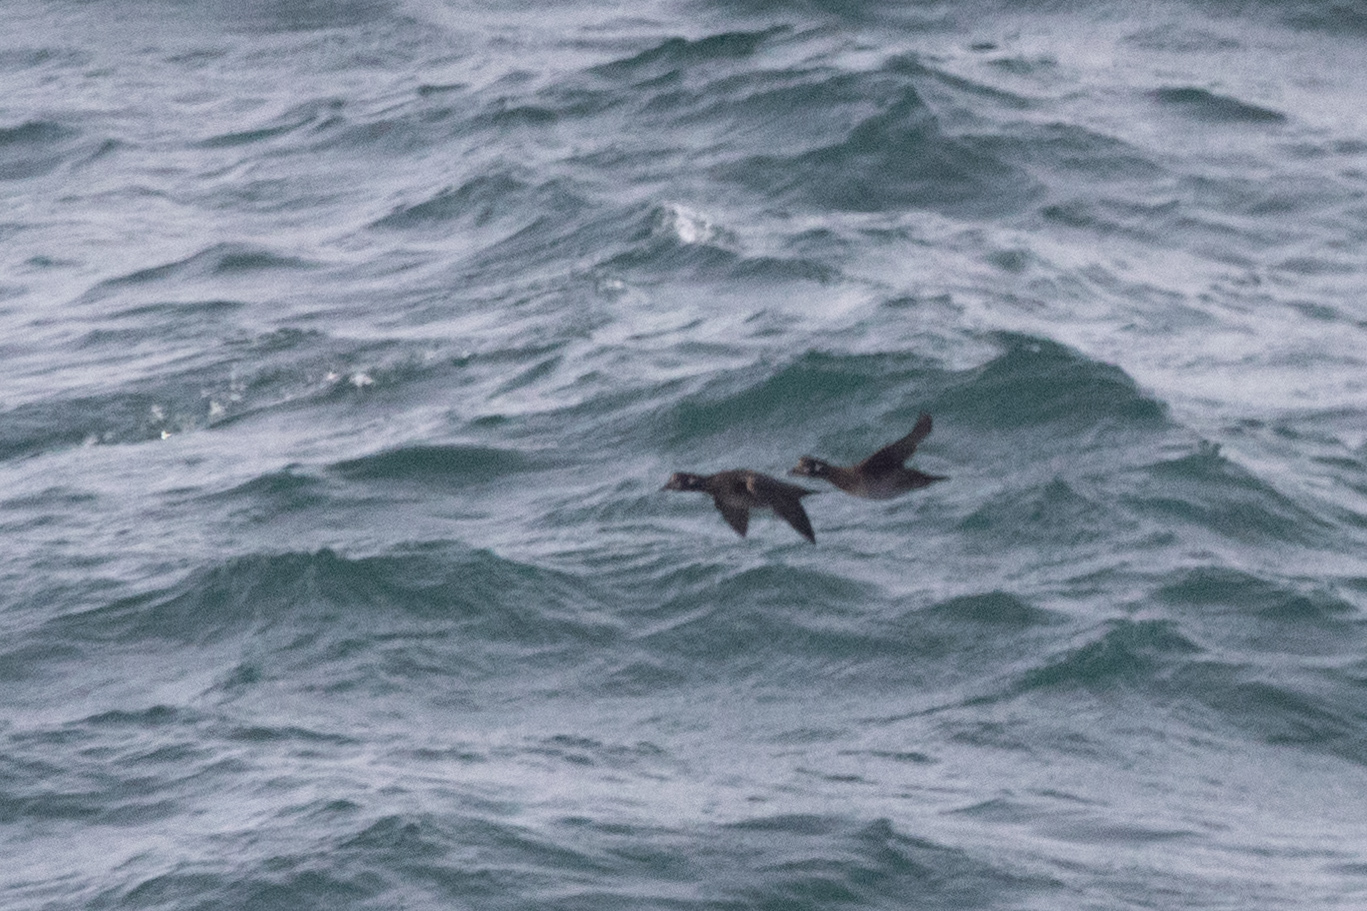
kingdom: Animalia
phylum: Chordata
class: Aves
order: Anseriformes
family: Anatidae
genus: Histrionicus
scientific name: Histrionicus histrionicus
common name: Harlequin duck
